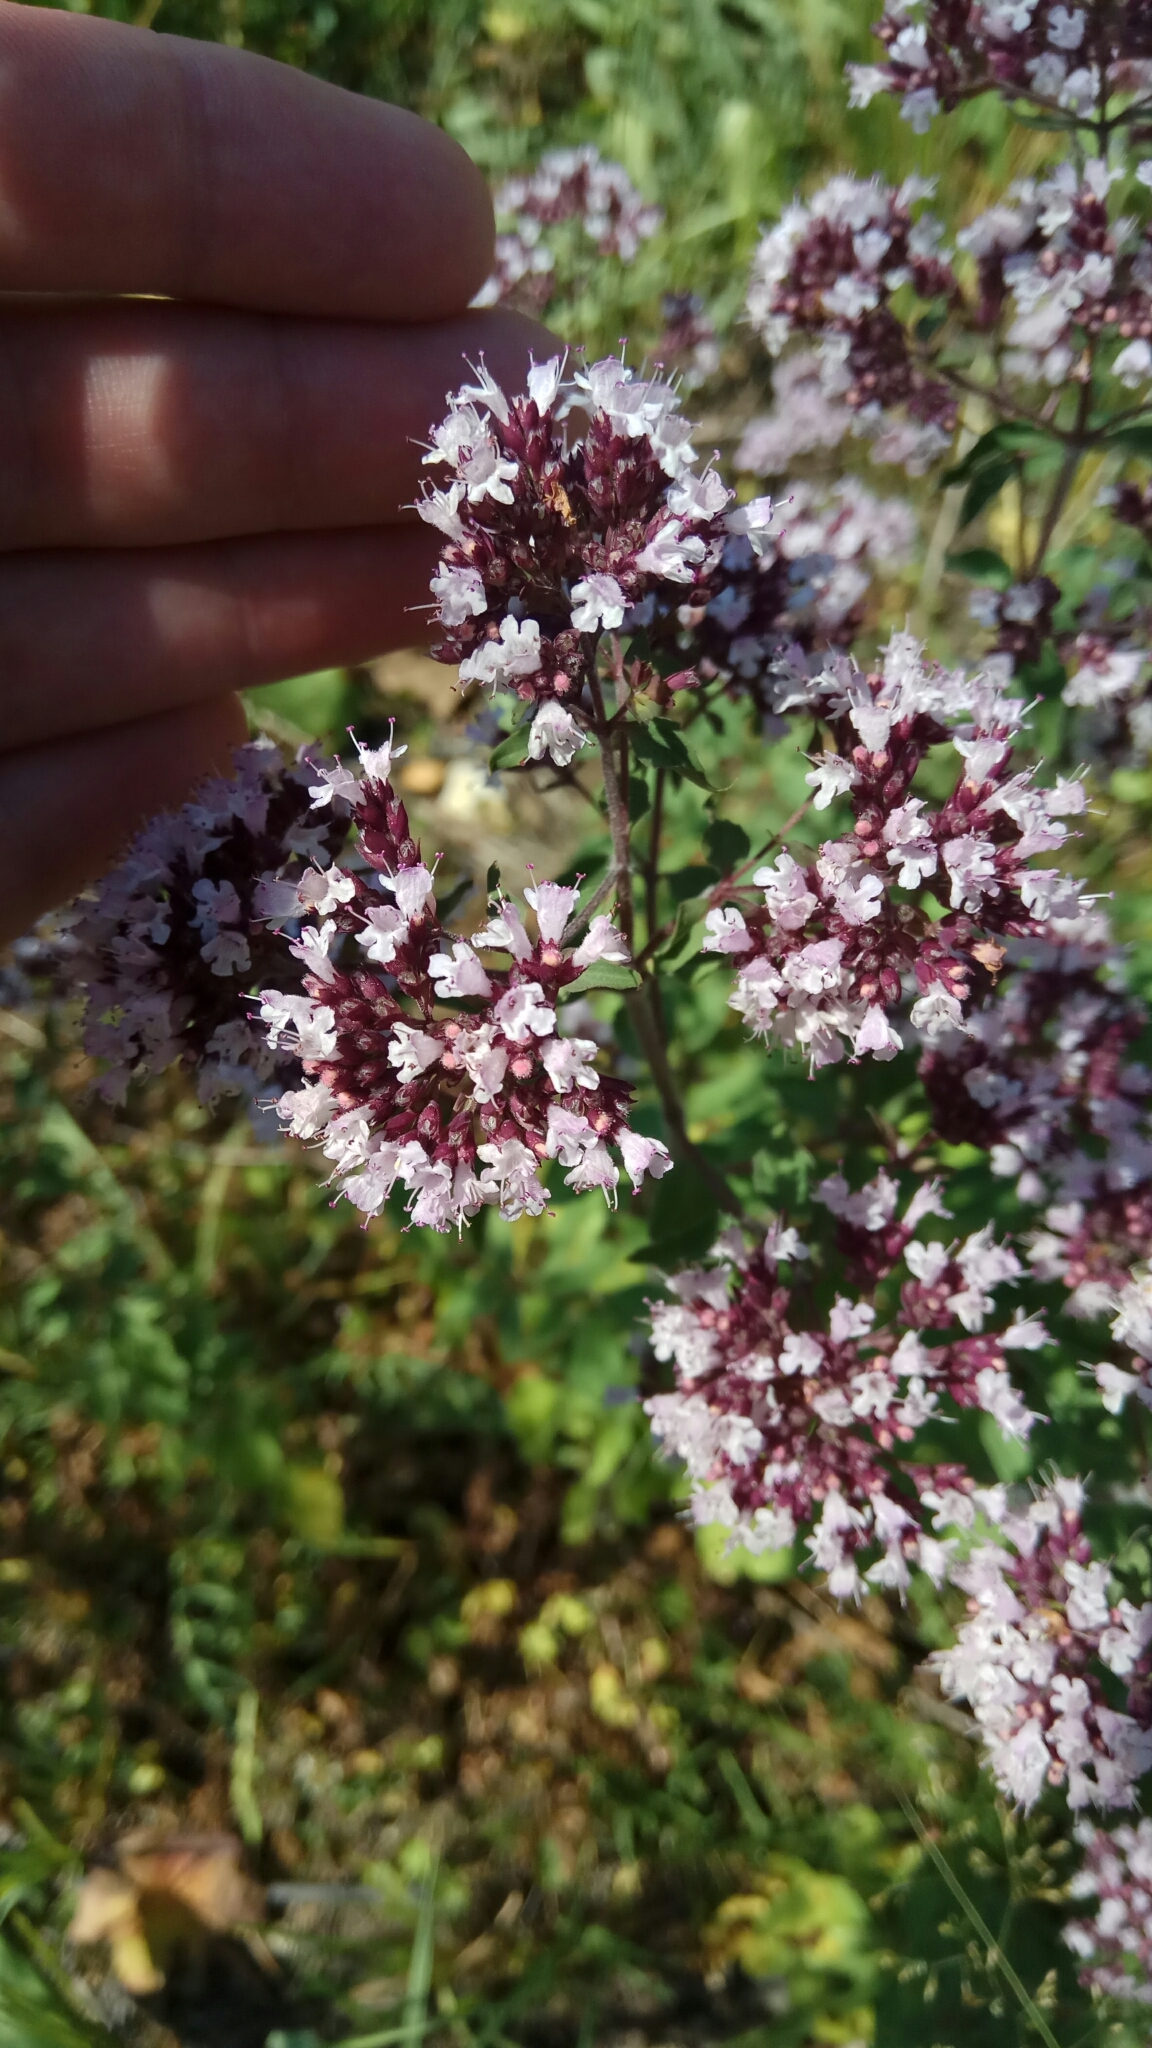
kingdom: Plantae
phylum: Tracheophyta
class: Magnoliopsida
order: Lamiales
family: Lamiaceae
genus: Origanum
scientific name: Origanum vulgare
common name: Wild marjoram
